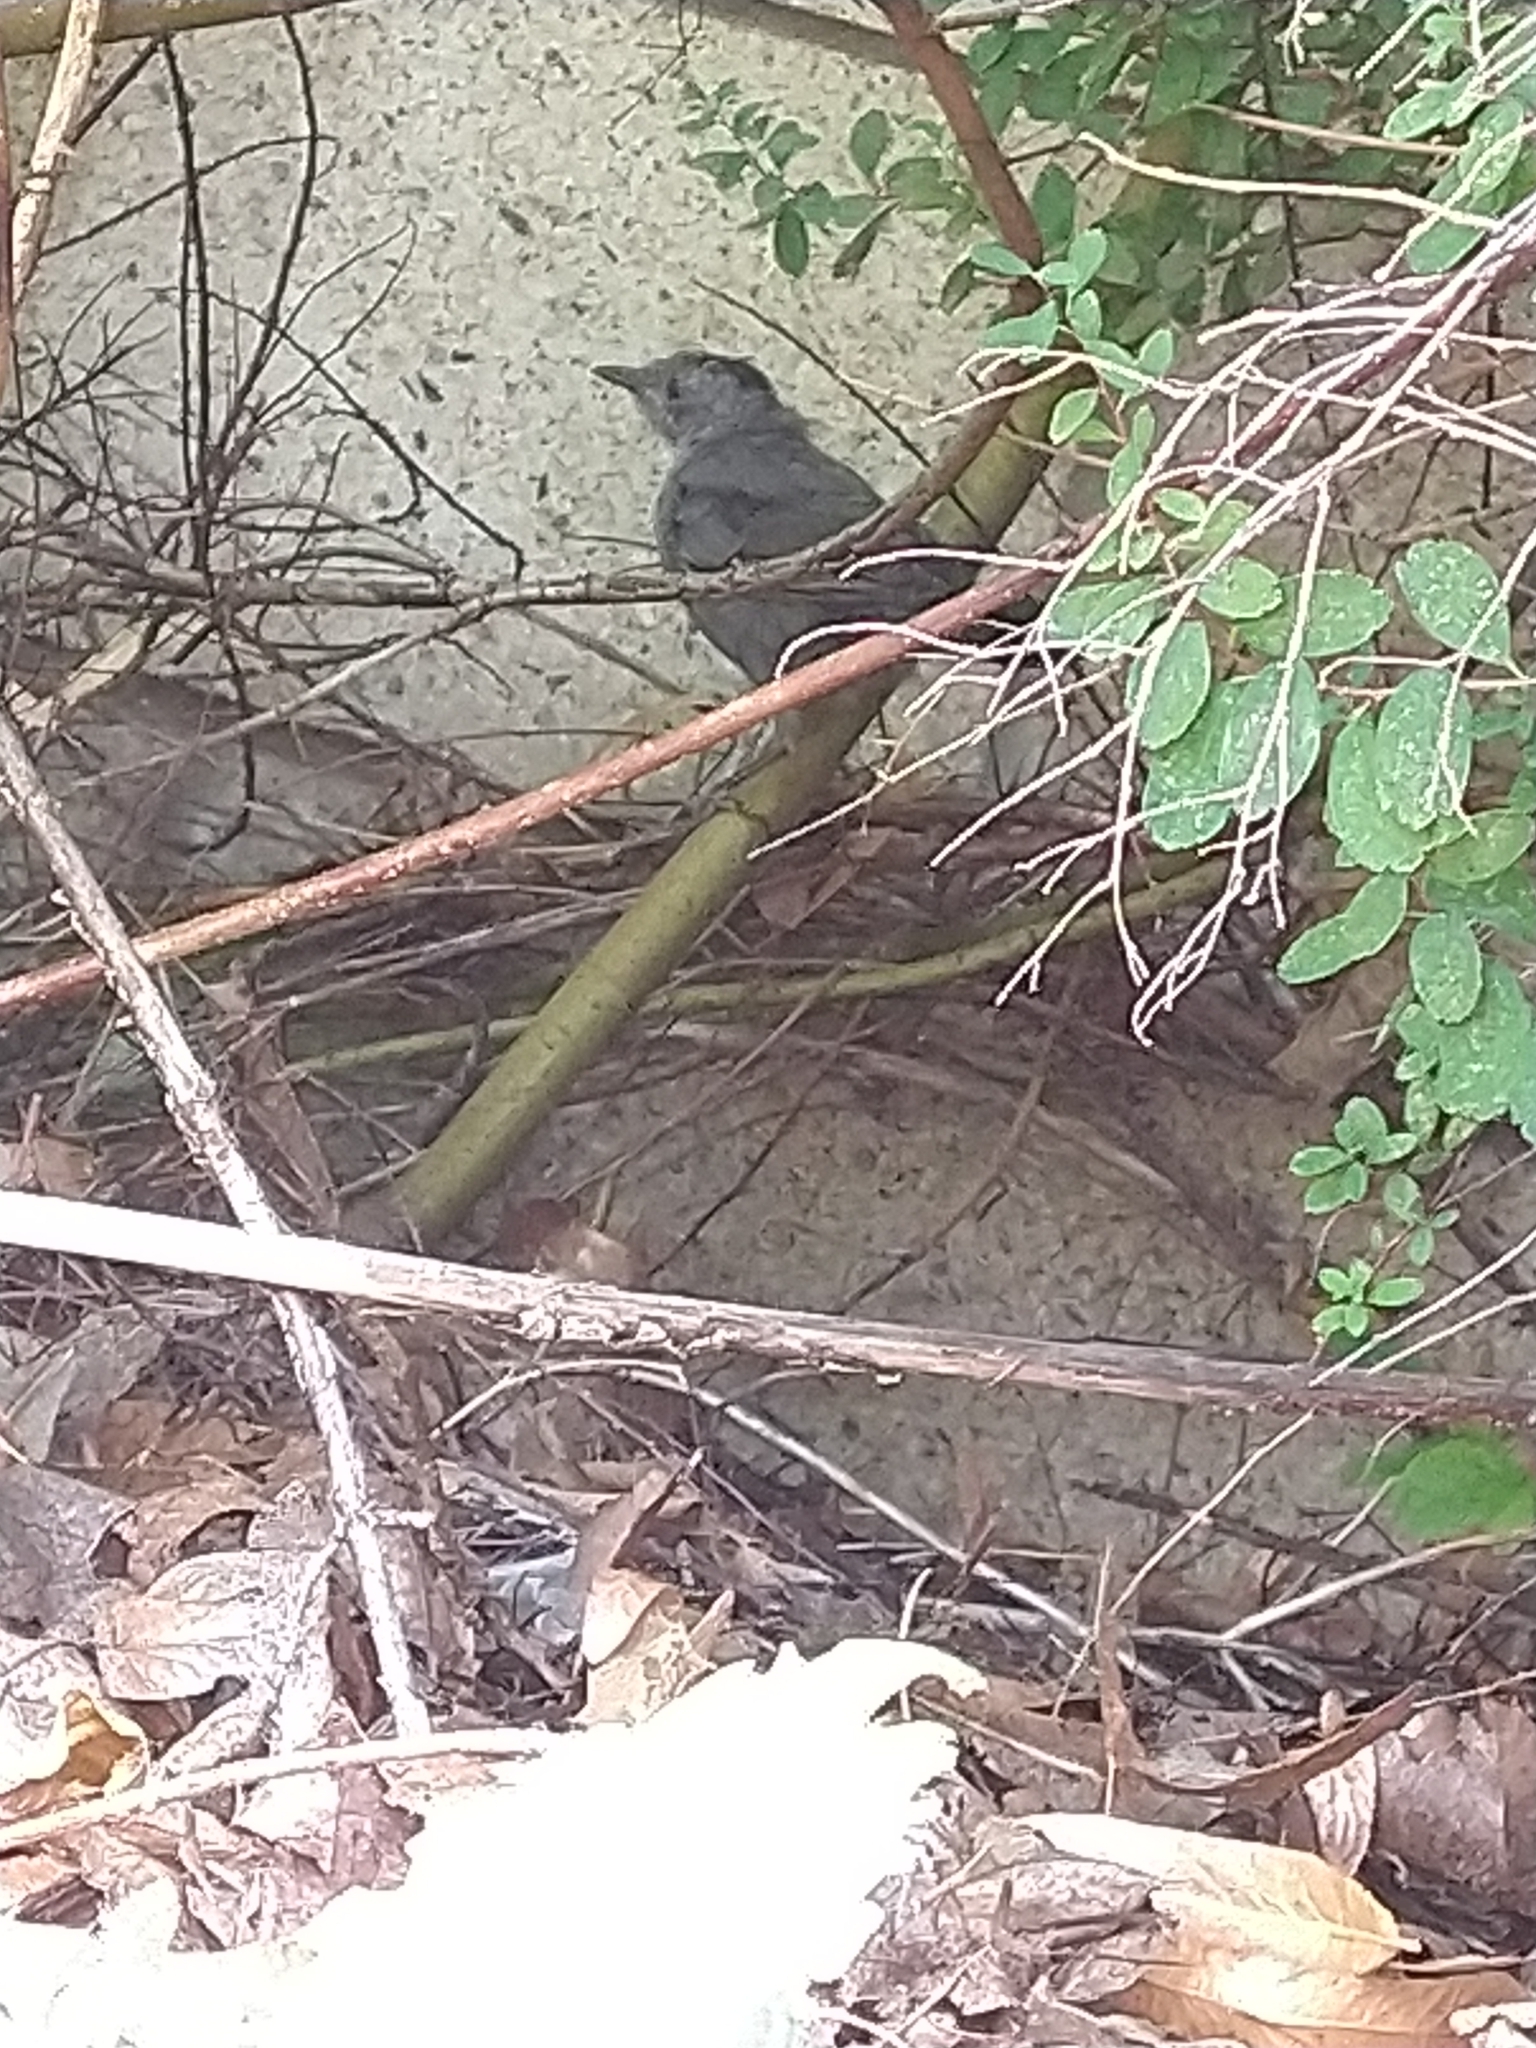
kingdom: Animalia
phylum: Chordata
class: Aves
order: Passeriformes
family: Mimidae
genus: Dumetella
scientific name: Dumetella carolinensis
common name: Gray catbird
